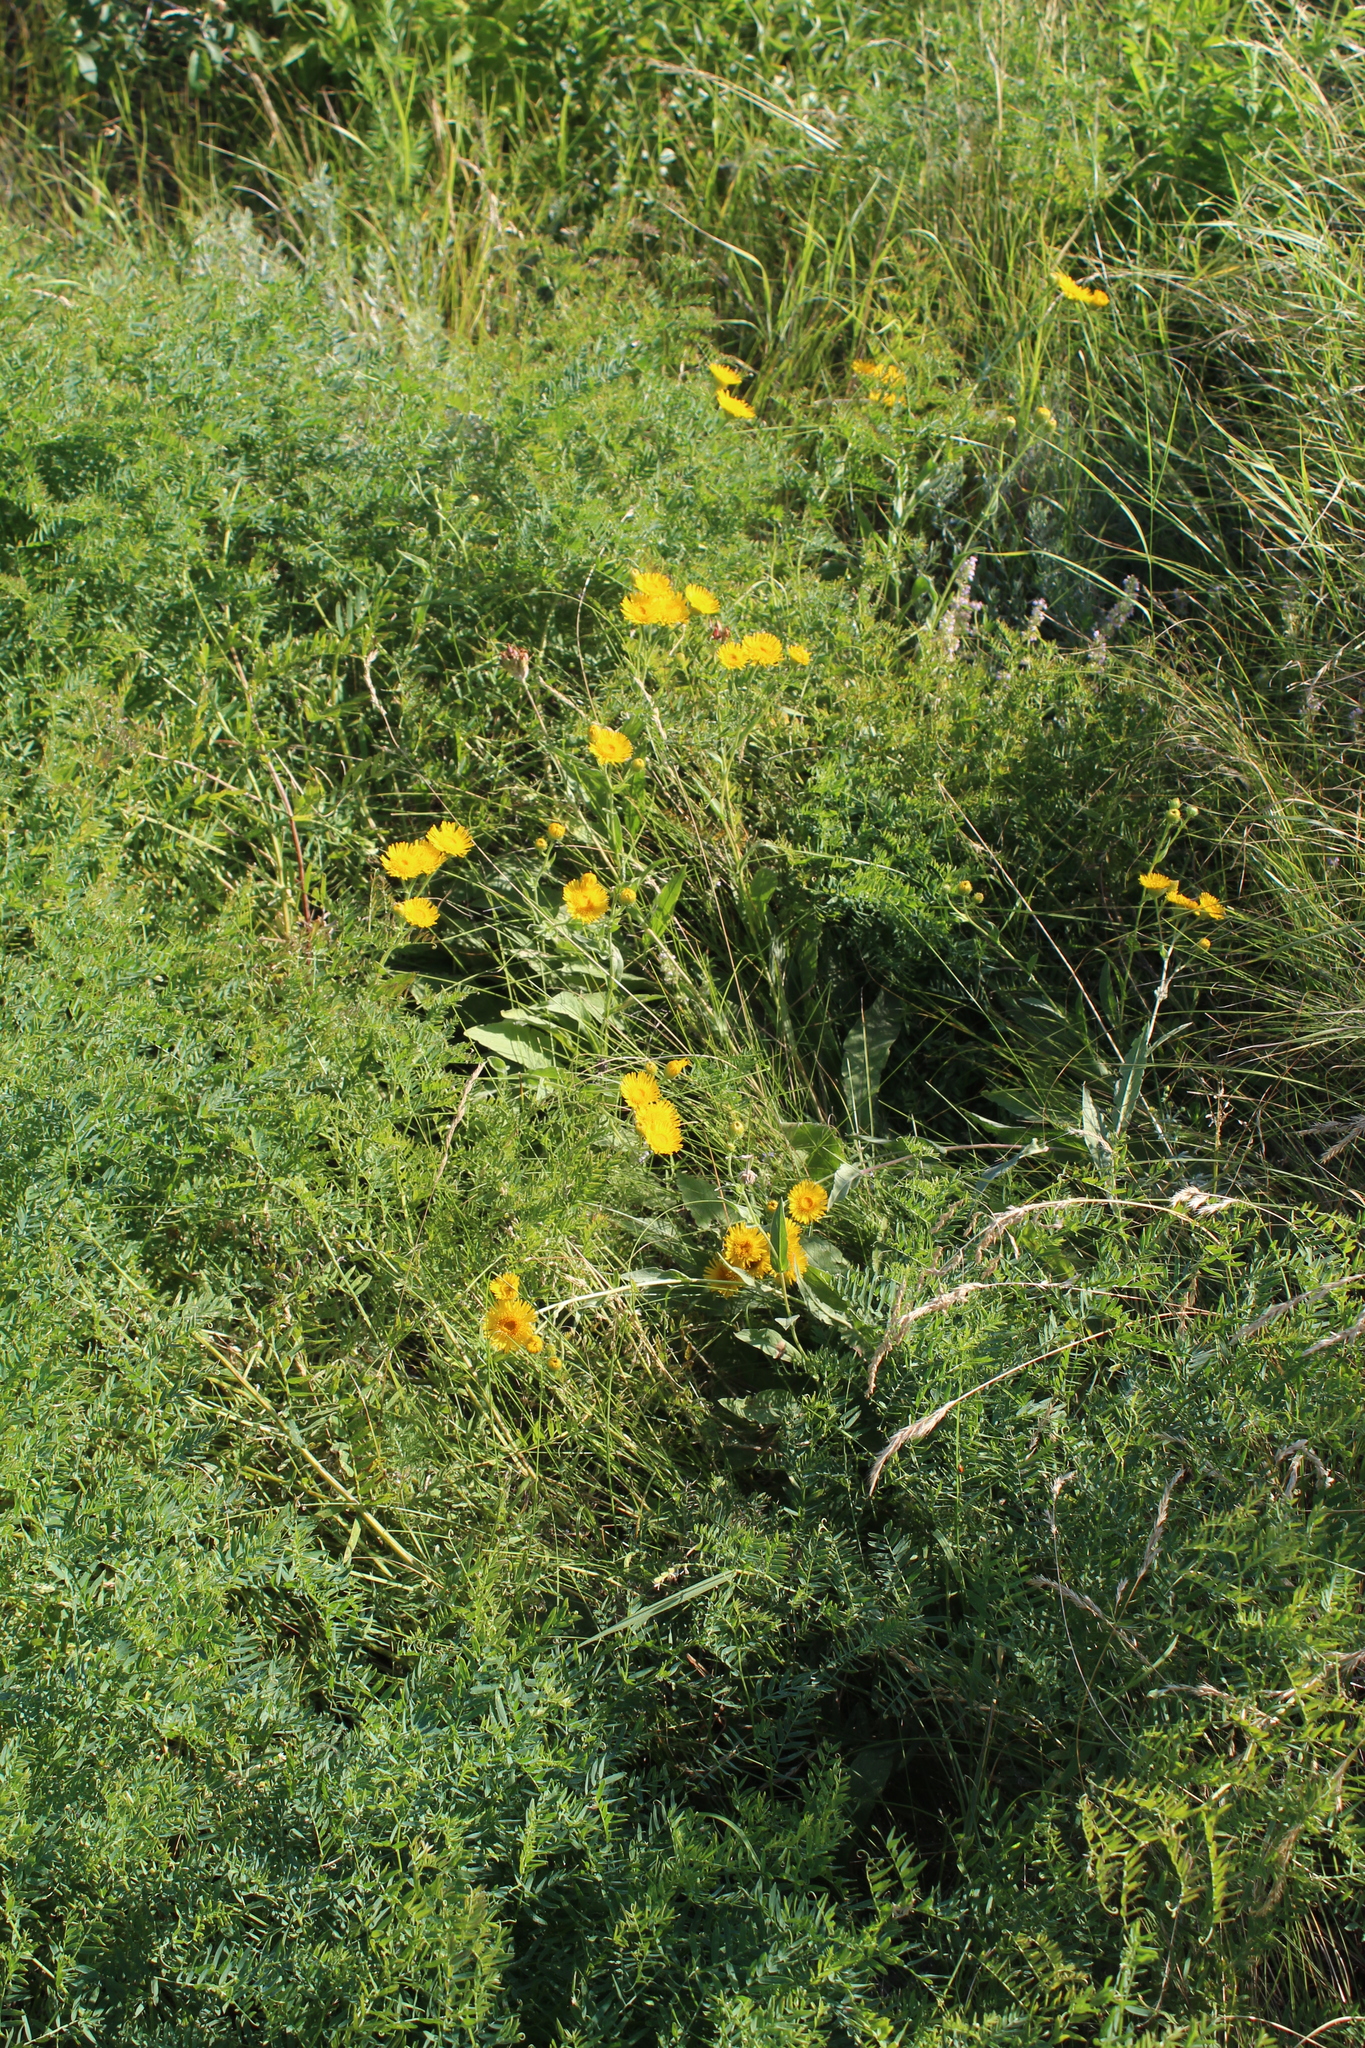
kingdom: Plantae
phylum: Tracheophyta
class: Magnoliopsida
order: Asterales
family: Asteraceae
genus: Pentanema
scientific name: Pentanema oculus-christi
